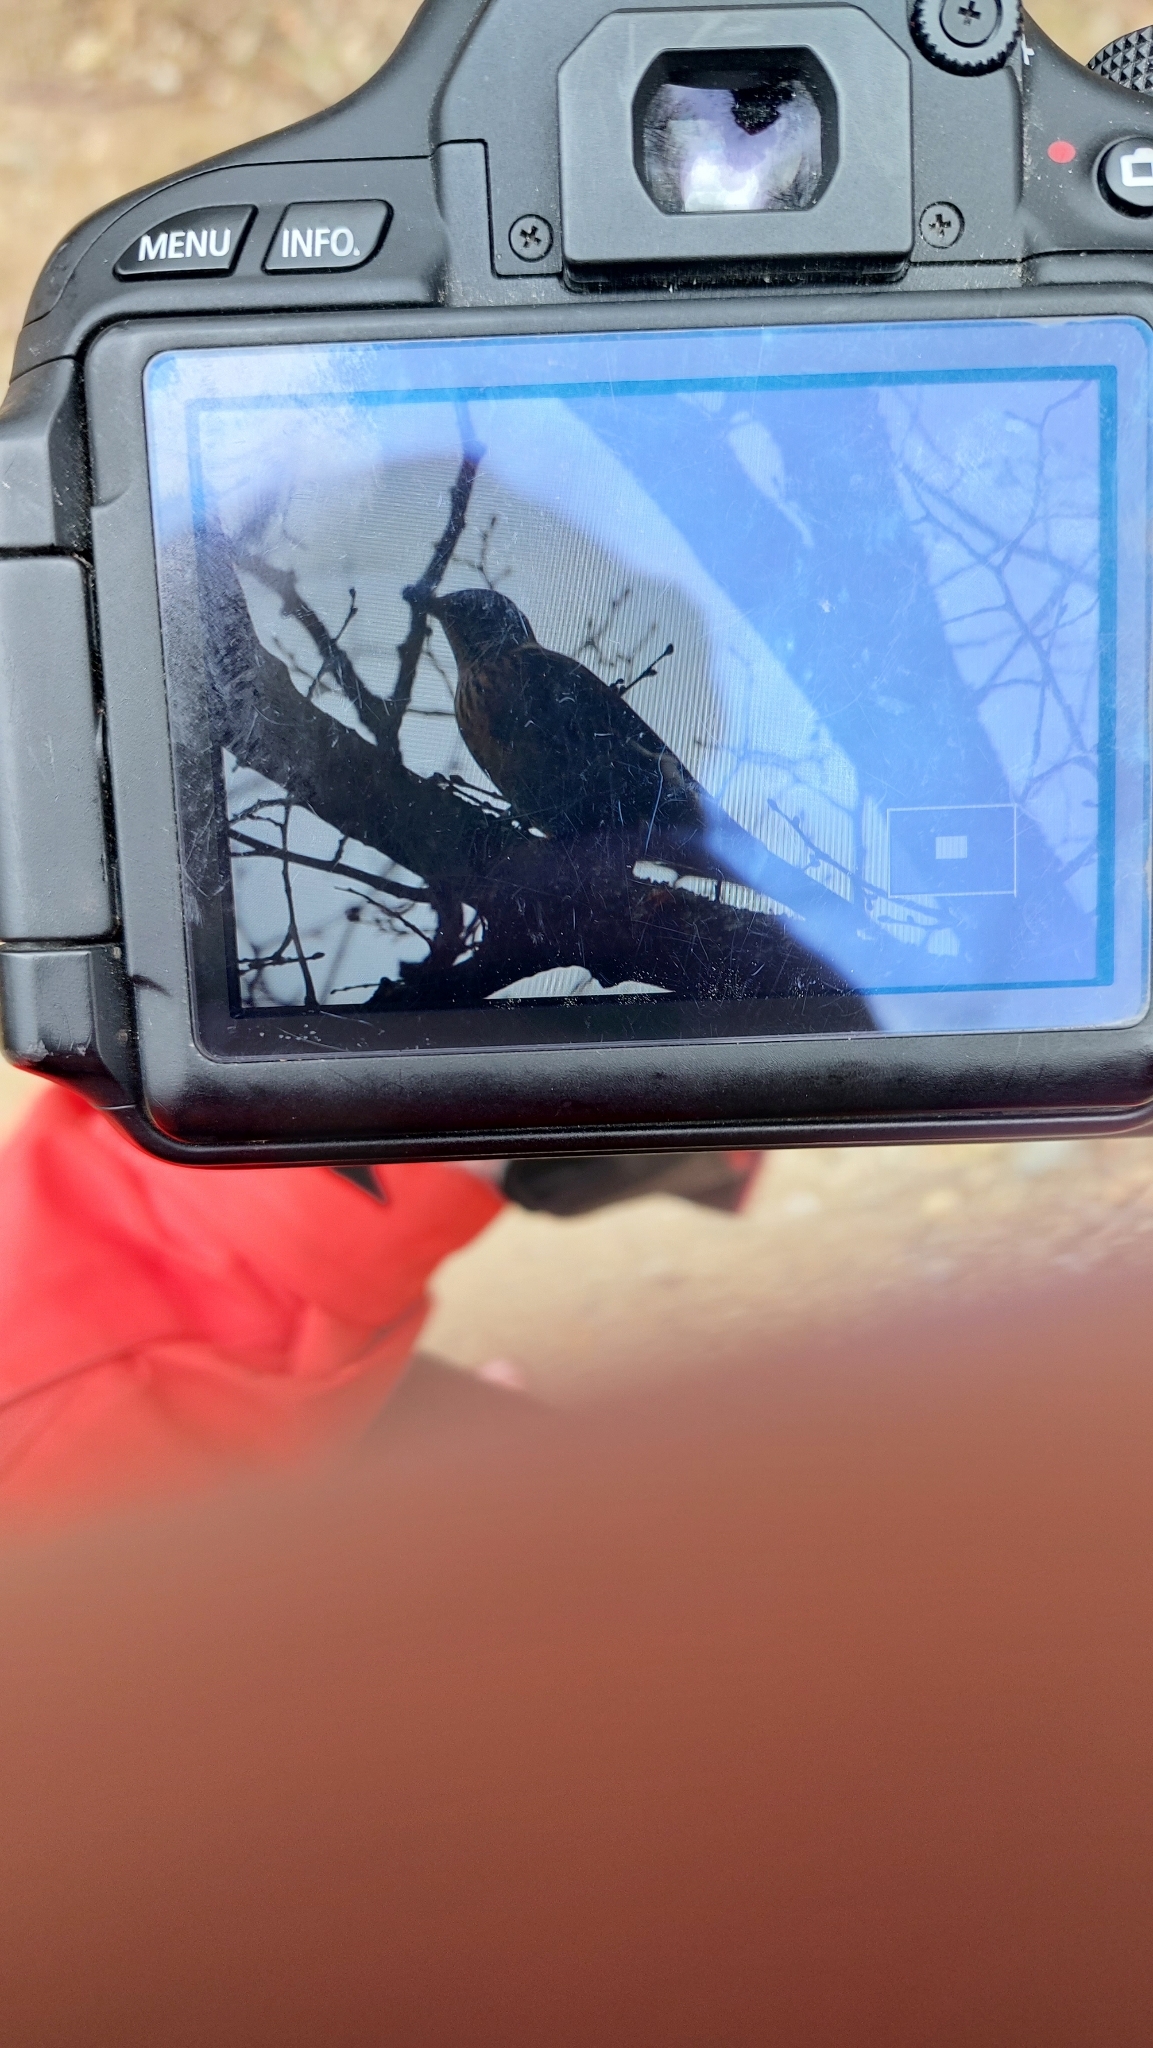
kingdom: Animalia
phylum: Chordata
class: Aves
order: Passeriformes
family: Turdidae
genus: Turdus
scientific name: Turdus pilaris
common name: Fieldfare
